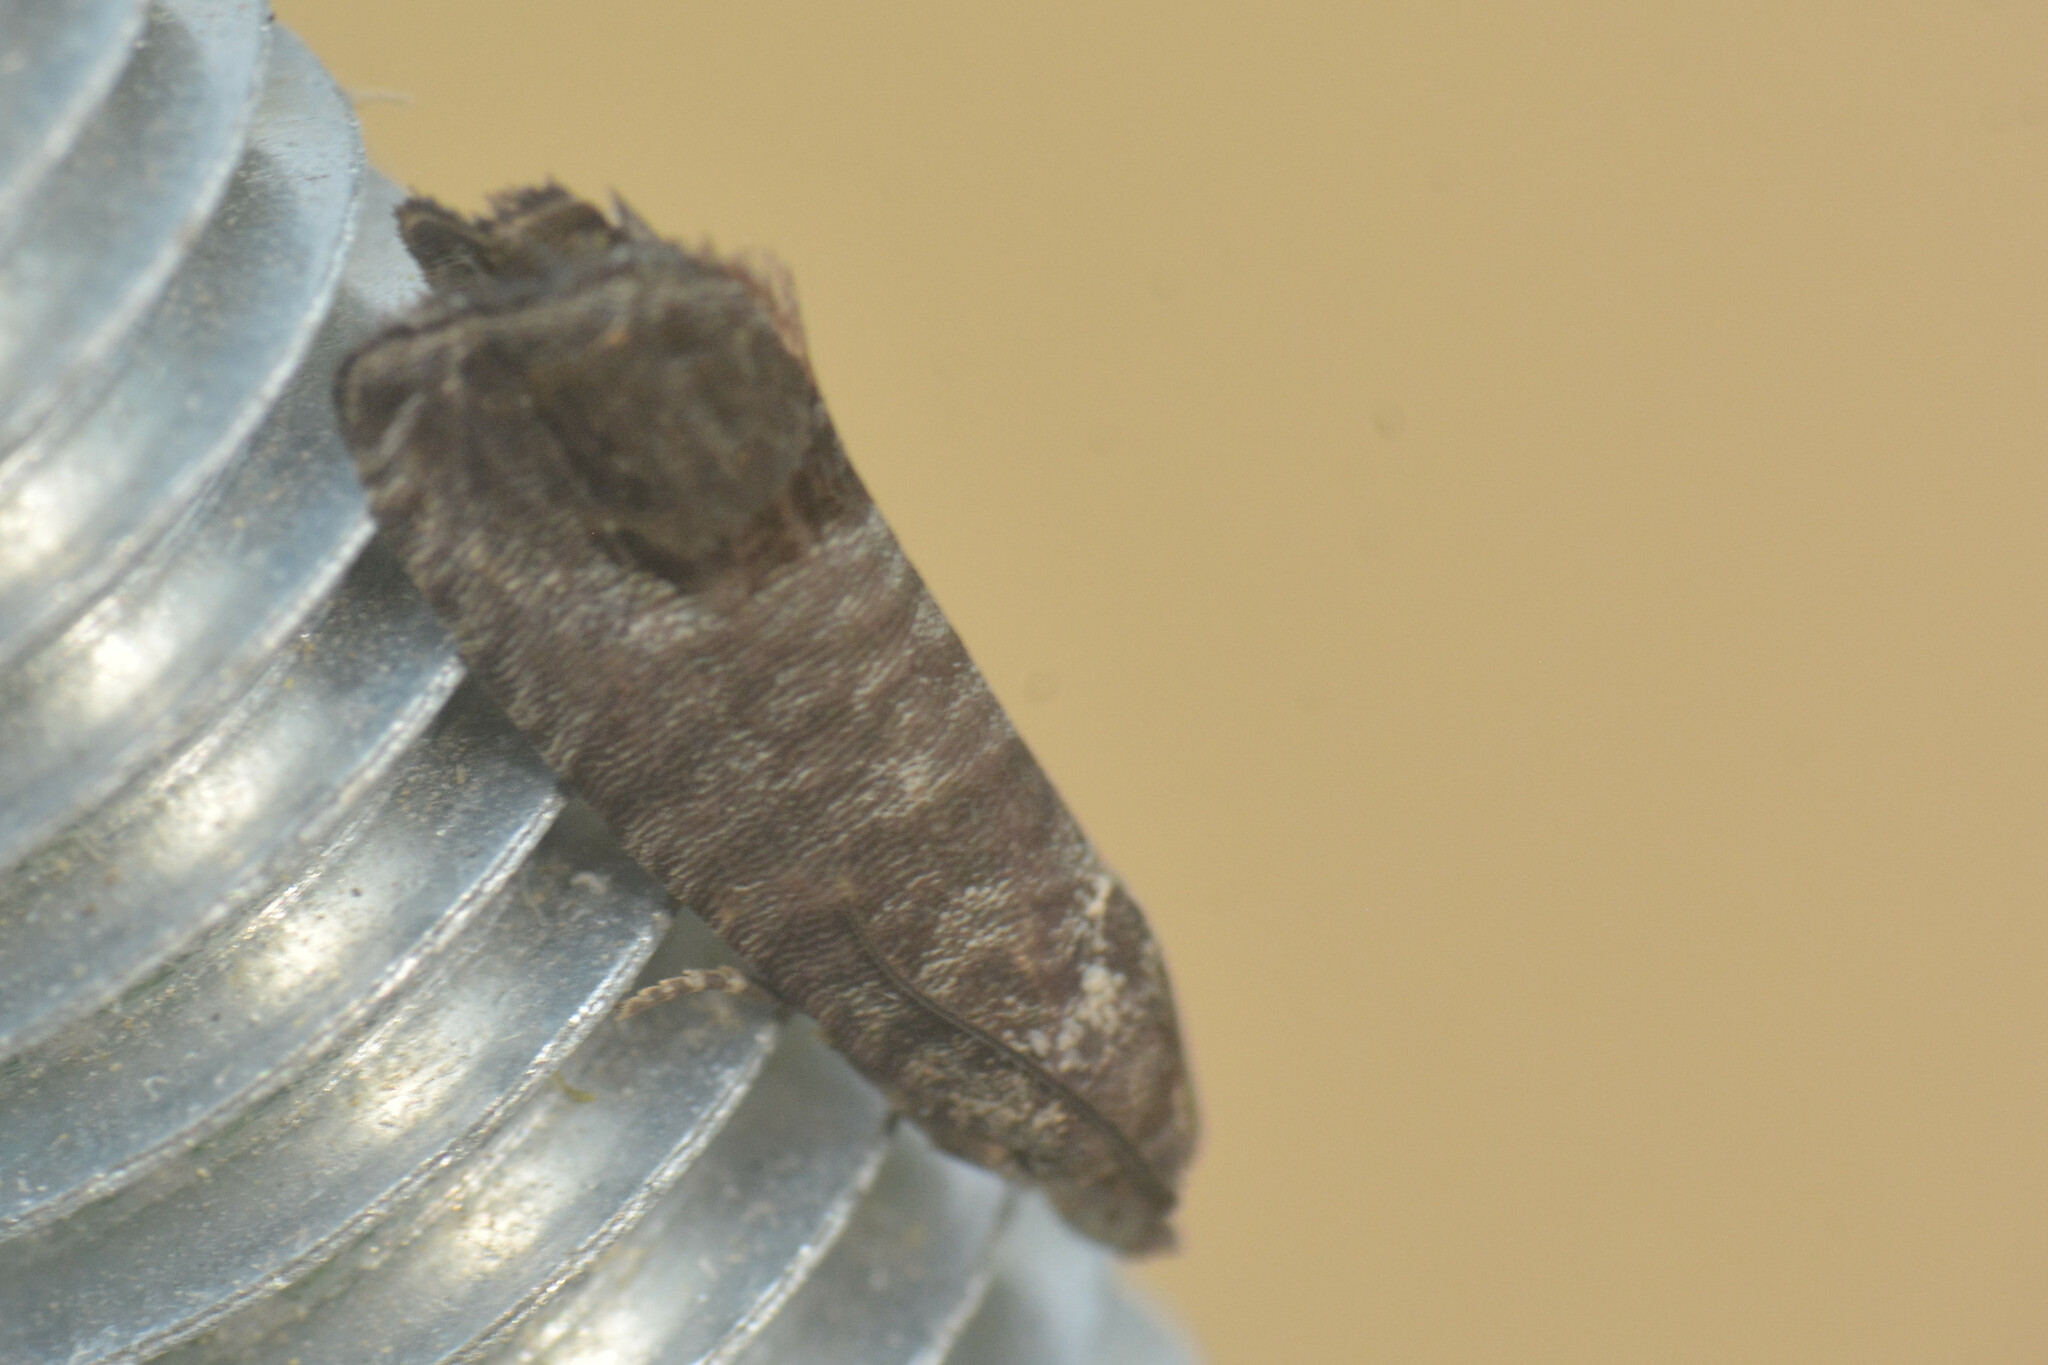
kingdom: Animalia
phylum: Arthropoda
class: Insecta
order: Lepidoptera
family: Tortricidae
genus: Cydia
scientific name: Cydia pomonella
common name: Codling moth
